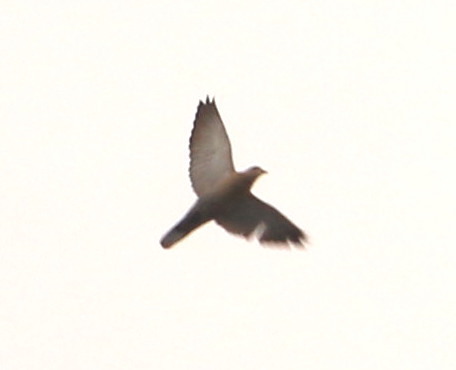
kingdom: Animalia
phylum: Chordata
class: Aves
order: Columbiformes
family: Columbidae
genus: Streptopelia
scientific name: Streptopelia decaocto
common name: Eurasian collared dove
